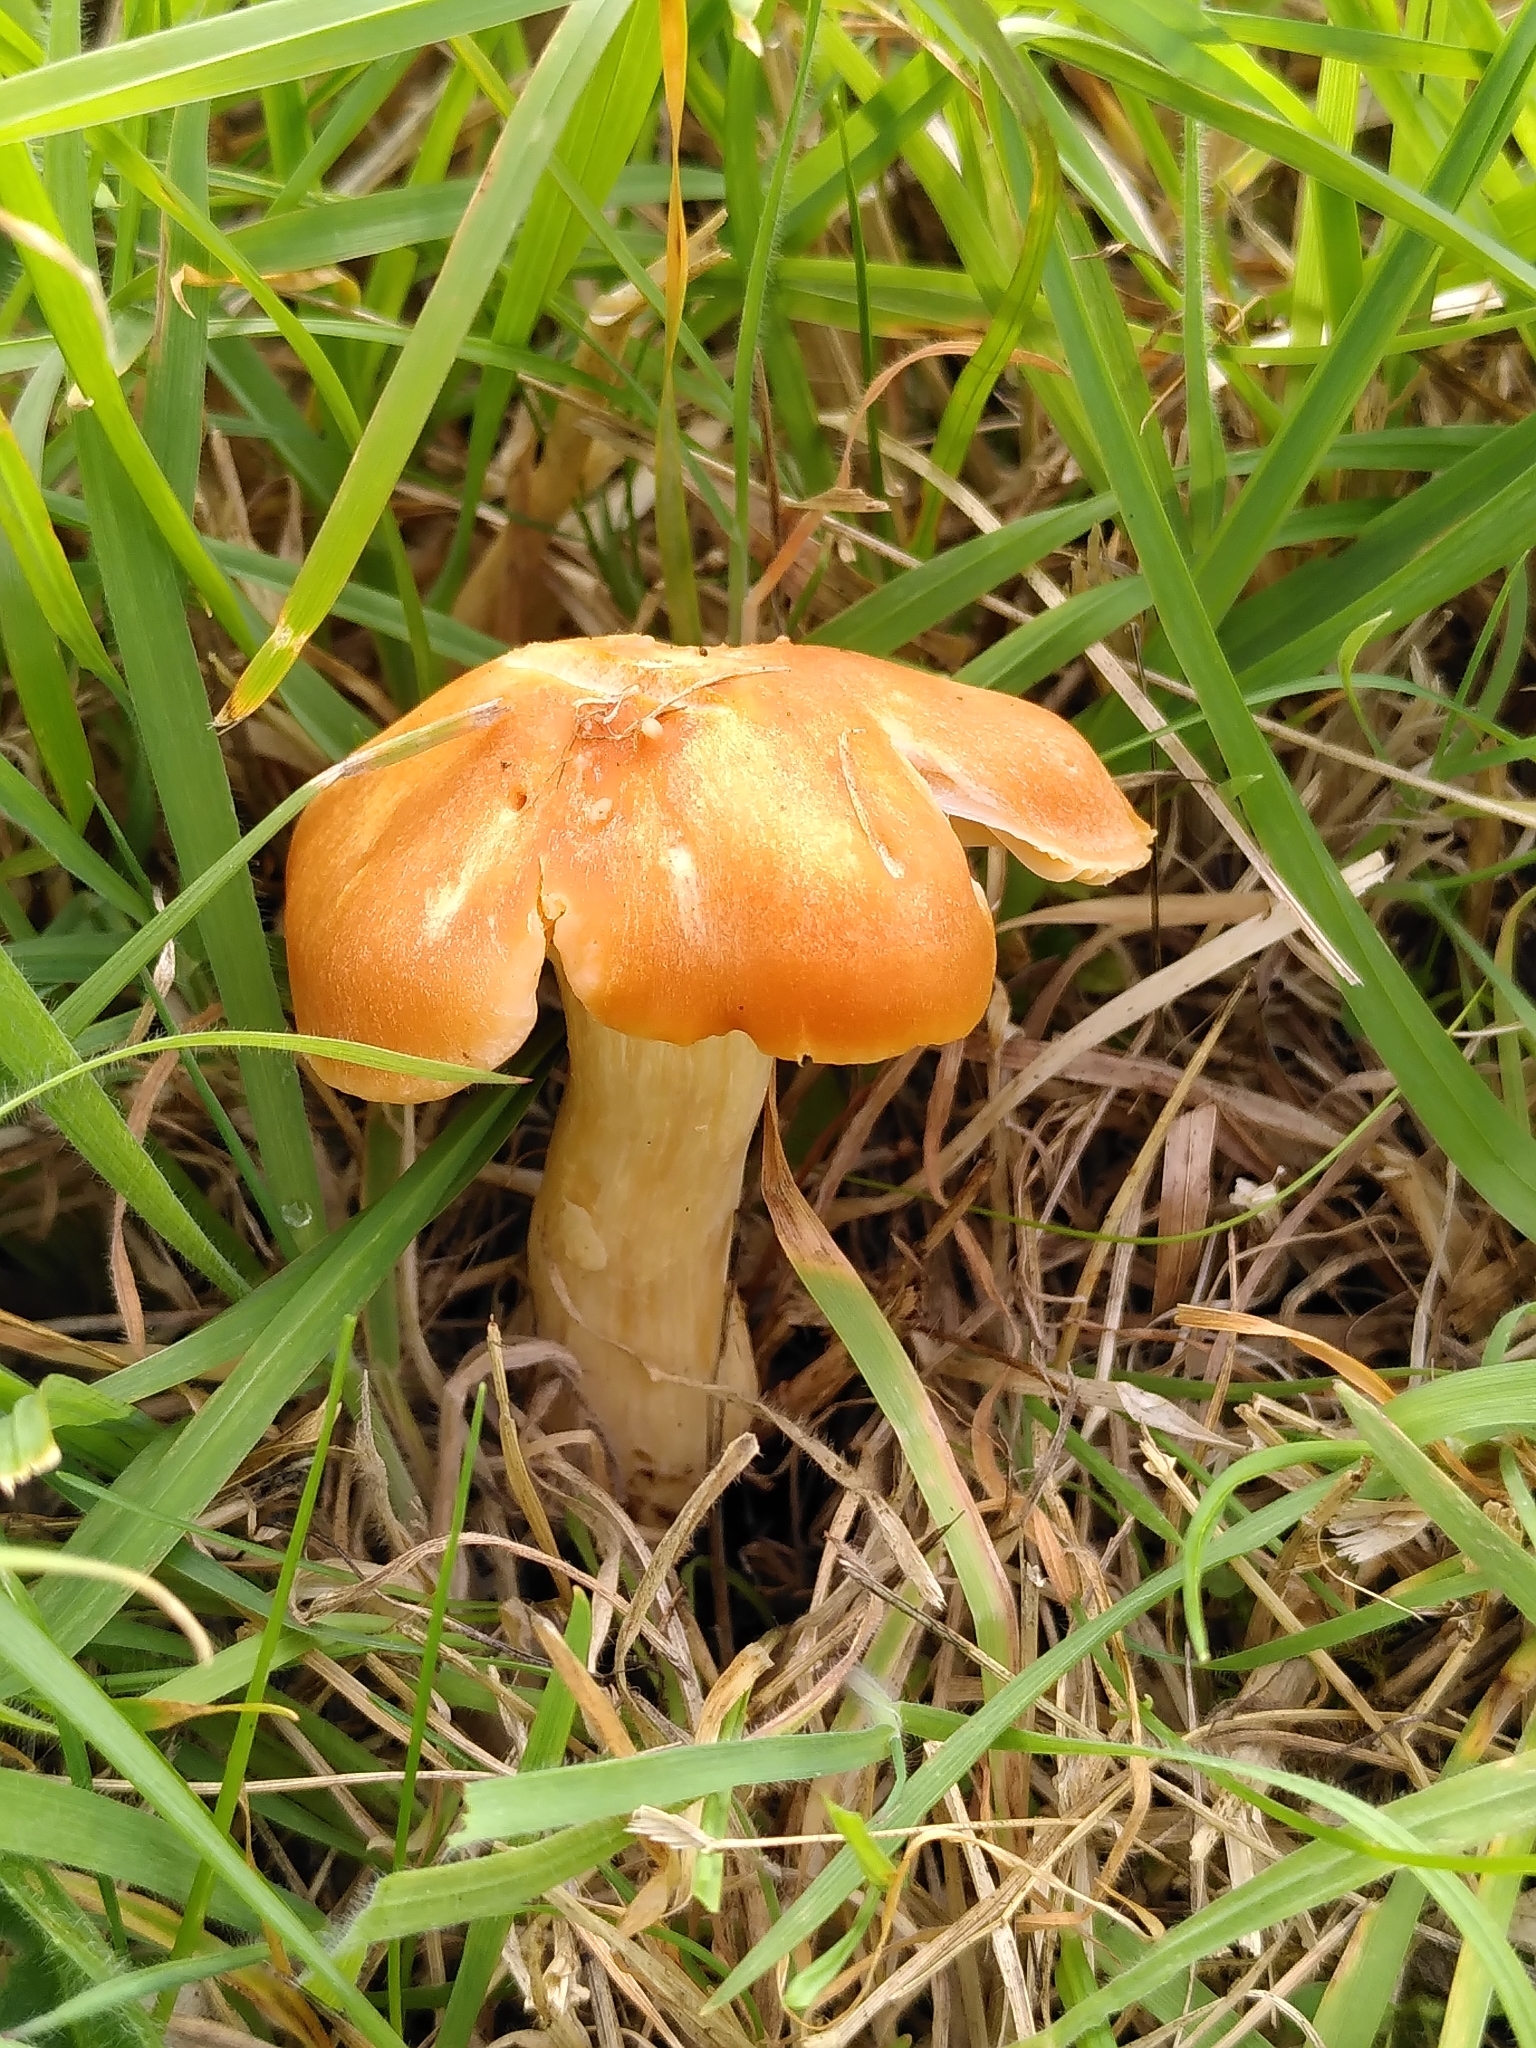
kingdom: Fungi
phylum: Basidiomycota
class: Agaricomycetes
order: Agaricales
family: Hygrophoraceae
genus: Cuphophyllus
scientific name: Cuphophyllus pratensis
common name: Meadow waxcap
